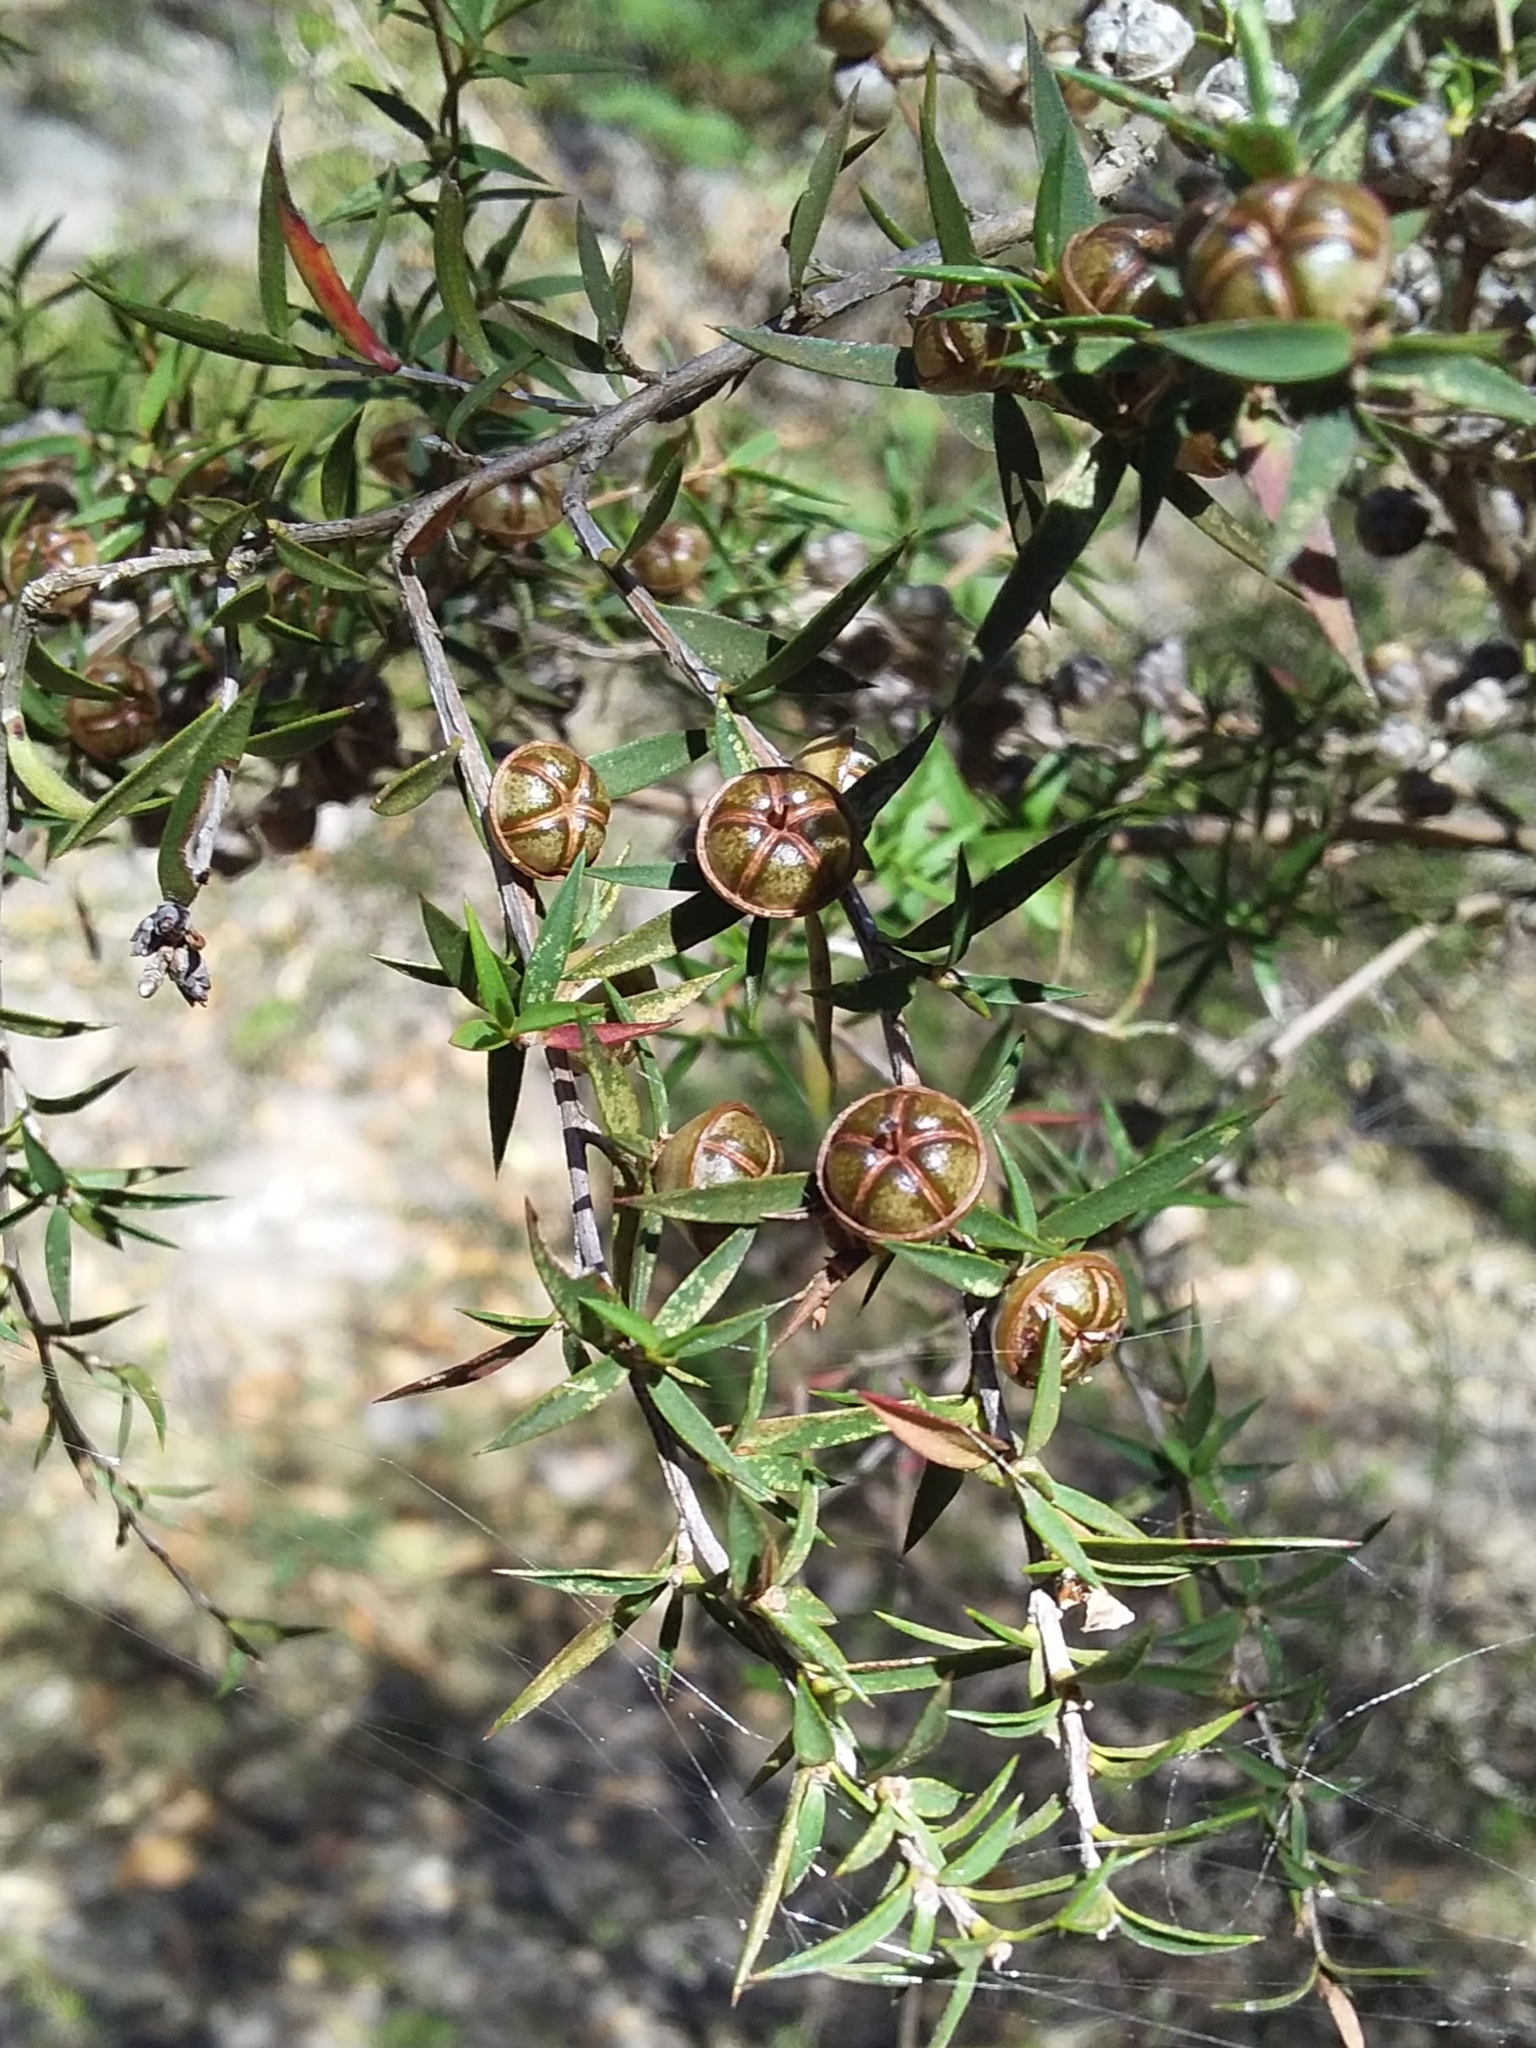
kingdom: Plantae
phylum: Tracheophyta
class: Magnoliopsida
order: Myrtales
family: Myrtaceae
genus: Leptospermum
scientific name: Leptospermum continentale
